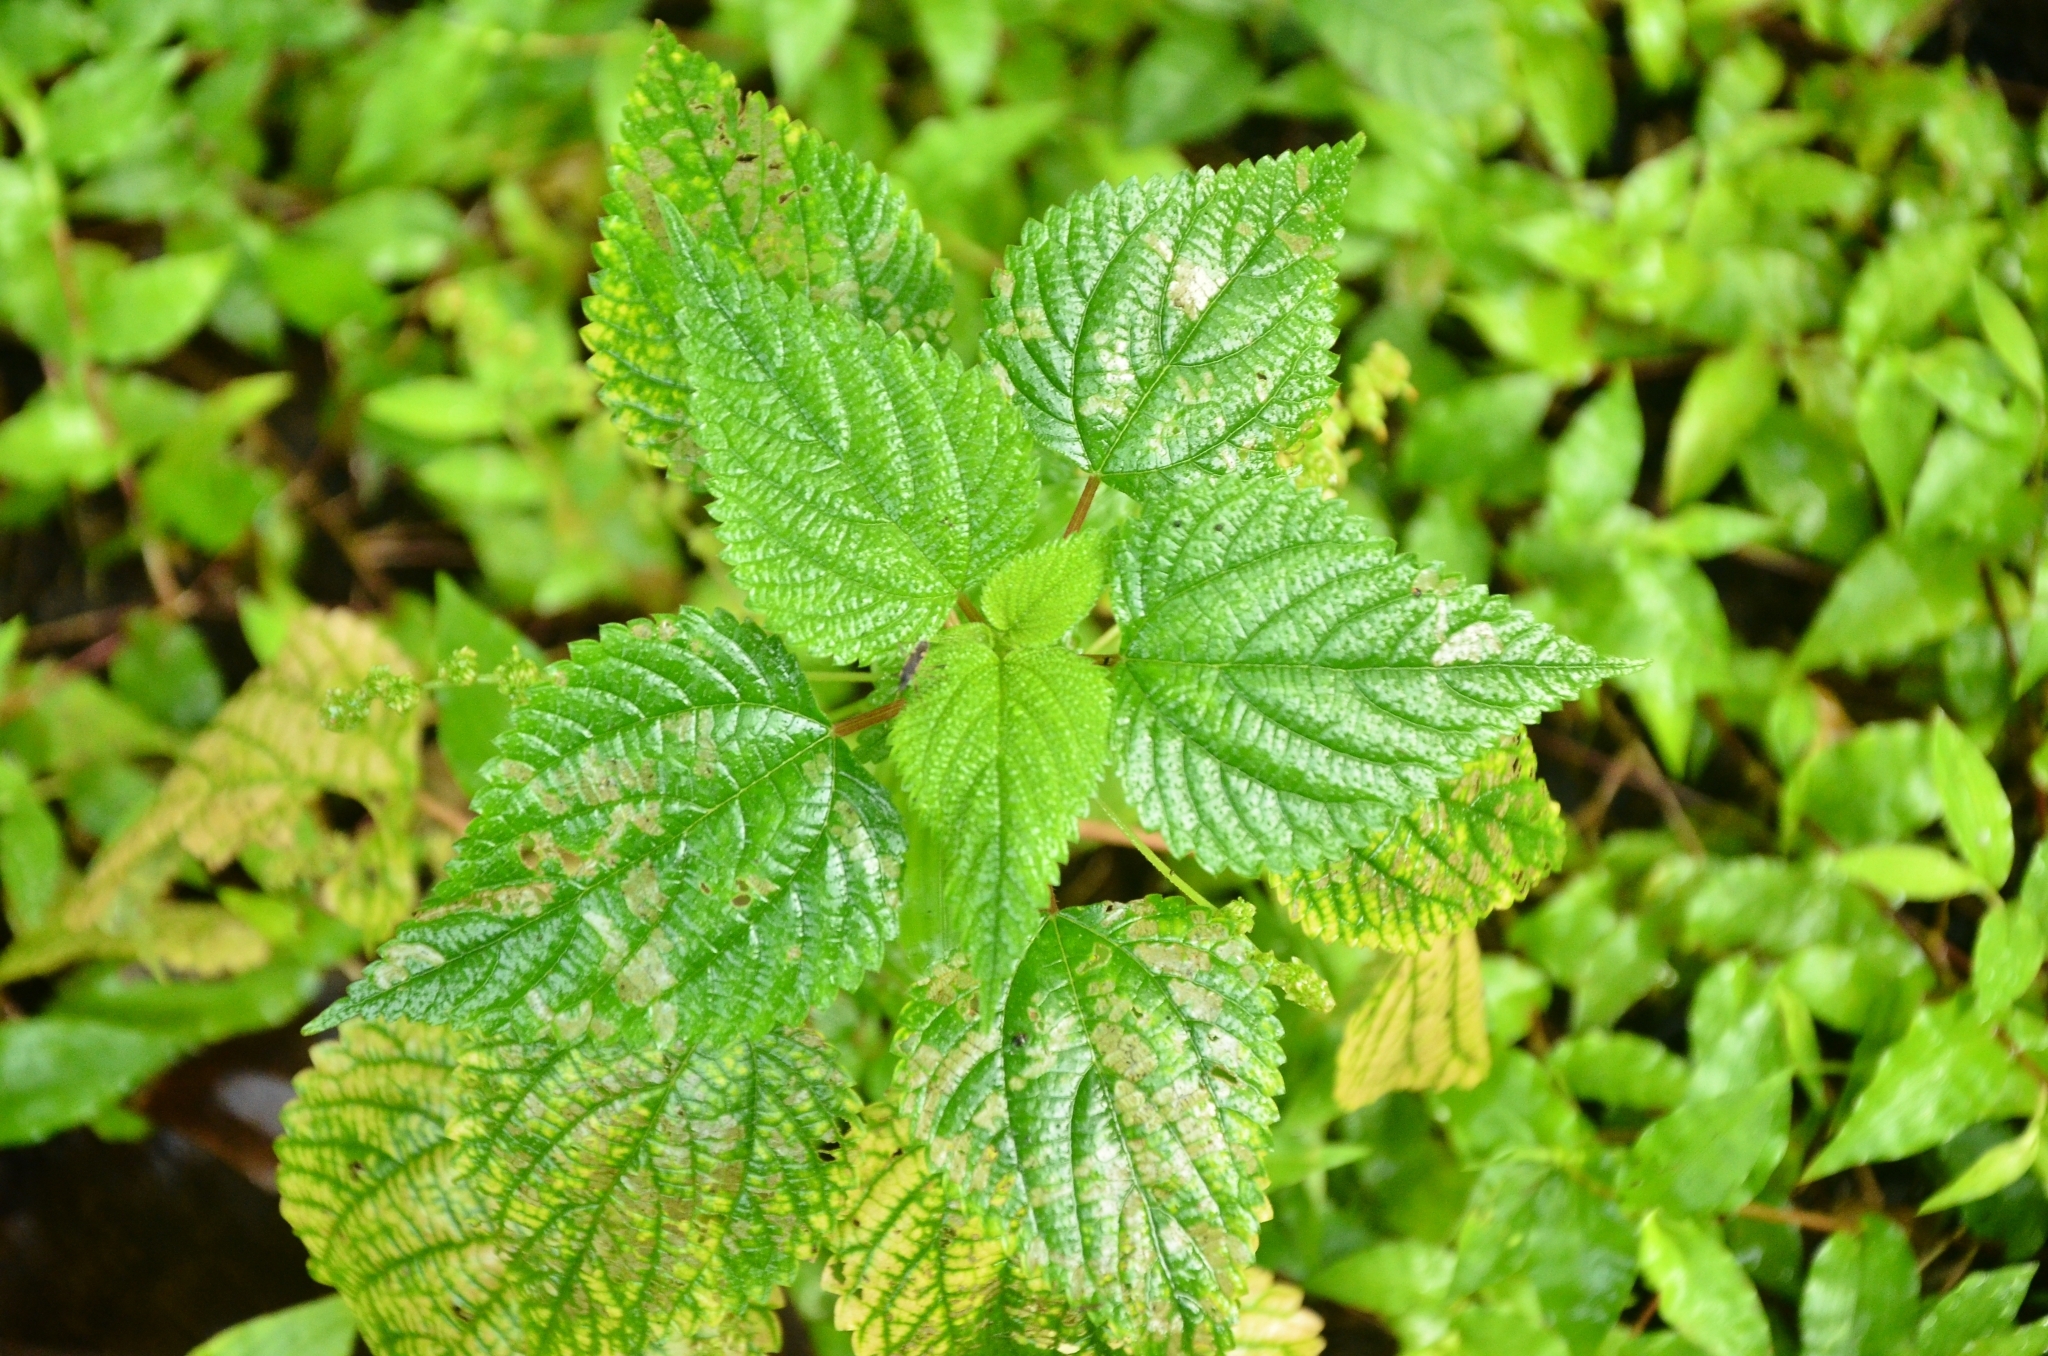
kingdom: Plantae
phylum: Tracheophyta
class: Magnoliopsida
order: Rosales
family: Urticaceae
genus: Laportea
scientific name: Laportea interrupta
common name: Hawaiian wood-nettle
